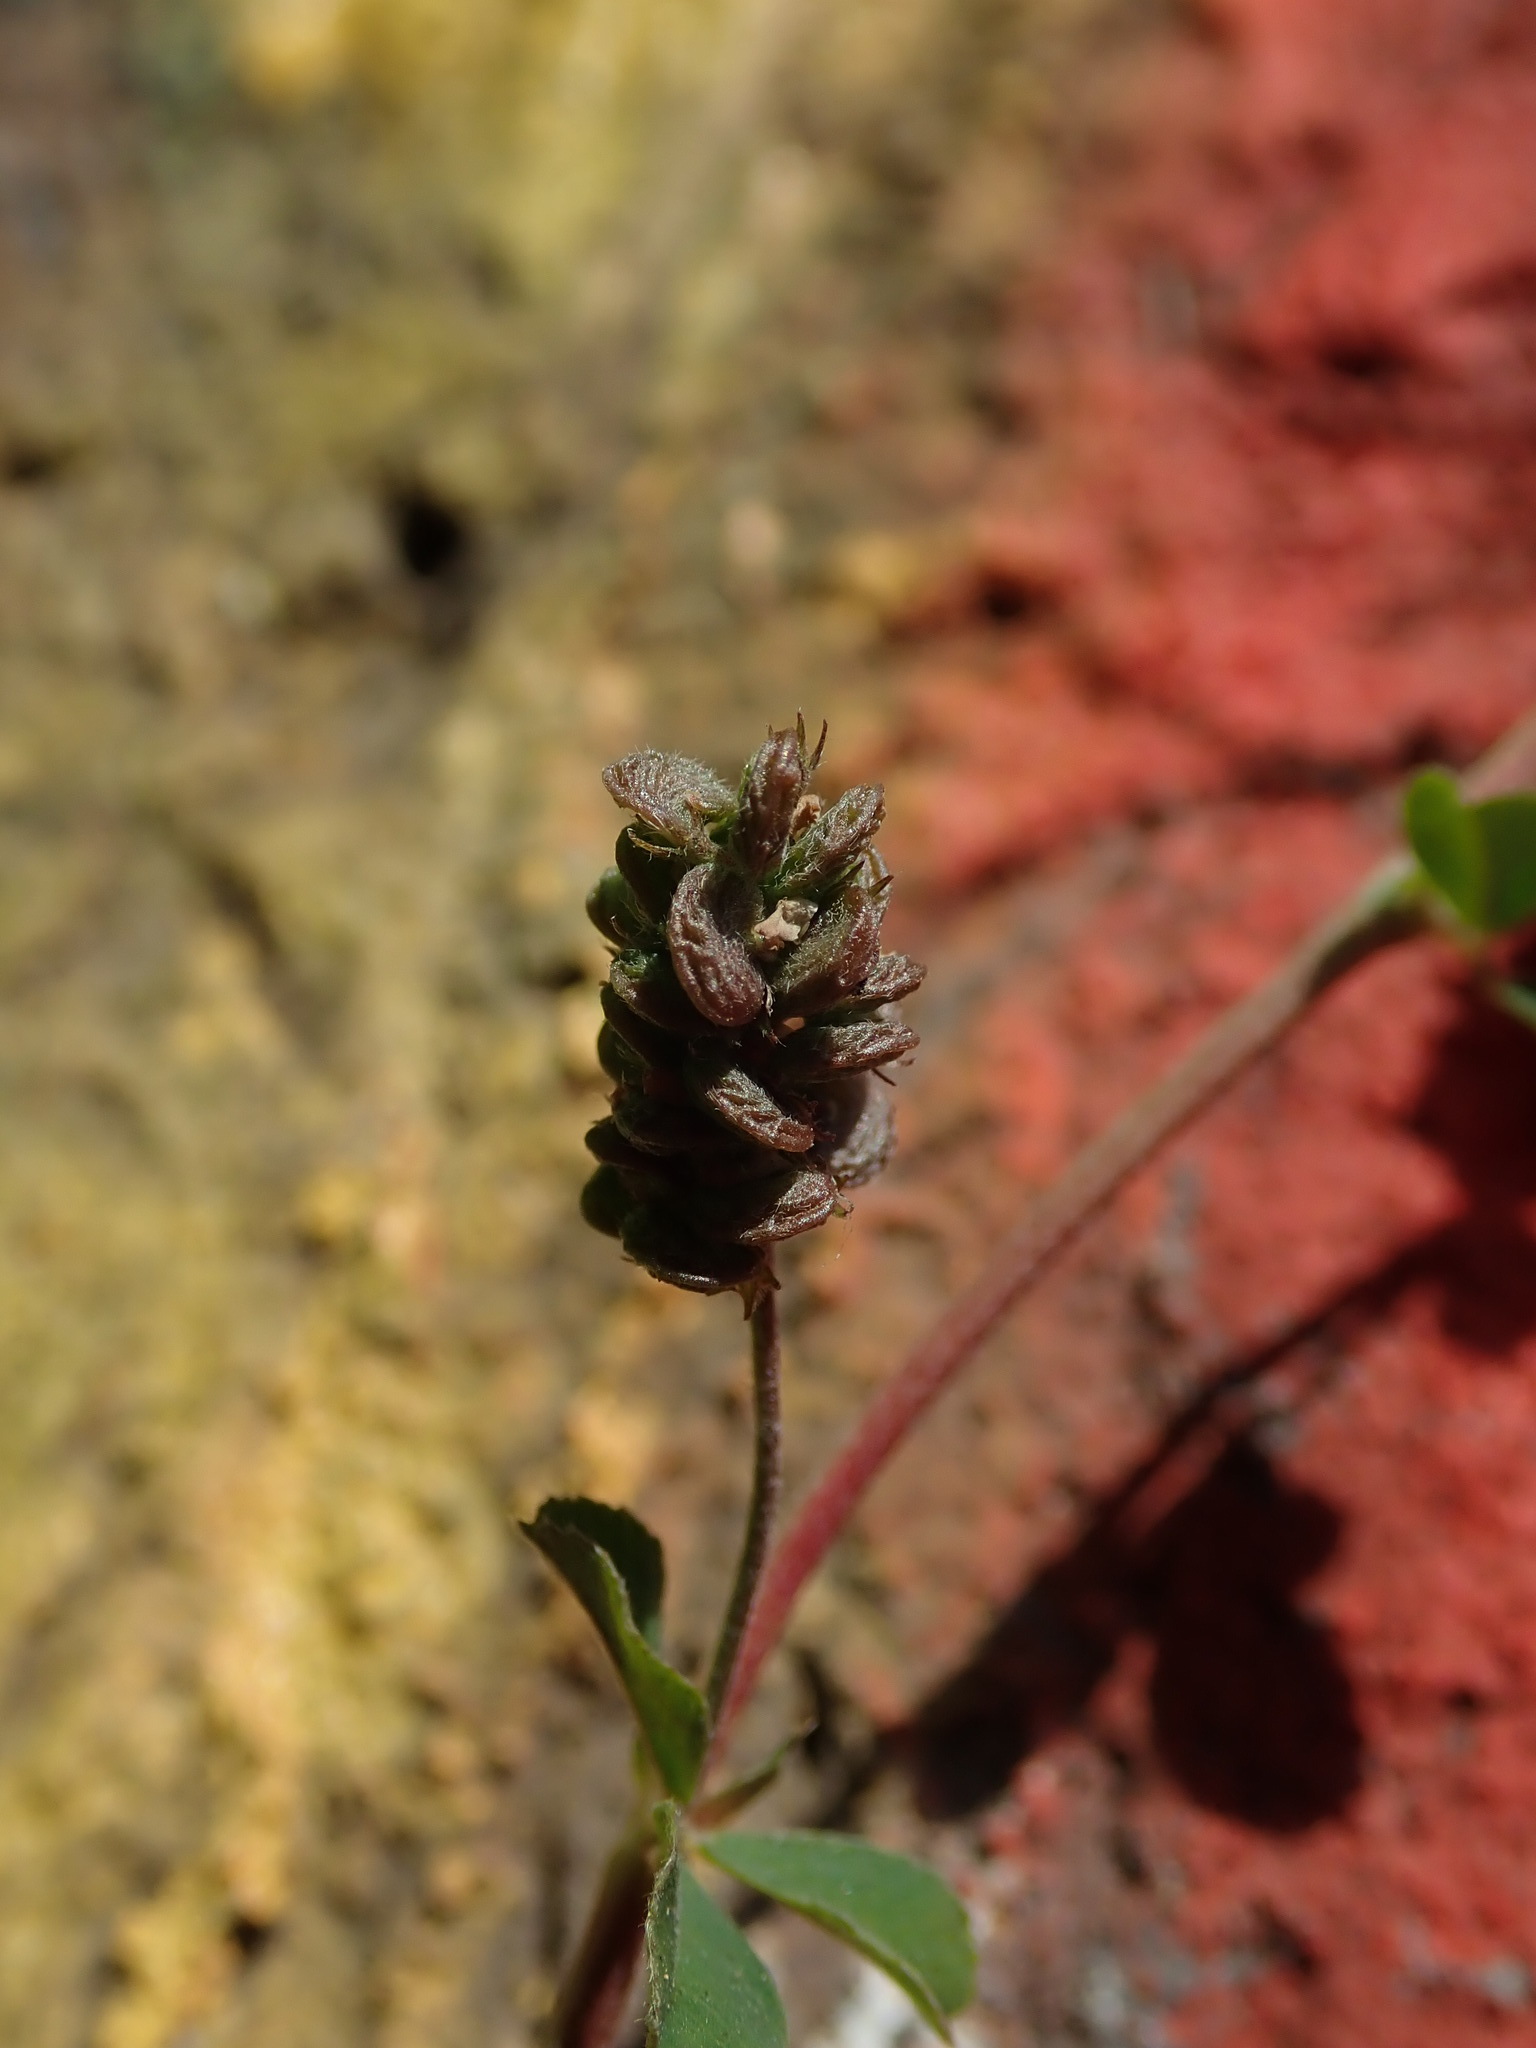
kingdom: Plantae
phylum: Tracheophyta
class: Magnoliopsida
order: Fabales
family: Fabaceae
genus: Medicago
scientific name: Medicago lupulina
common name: Black medick
